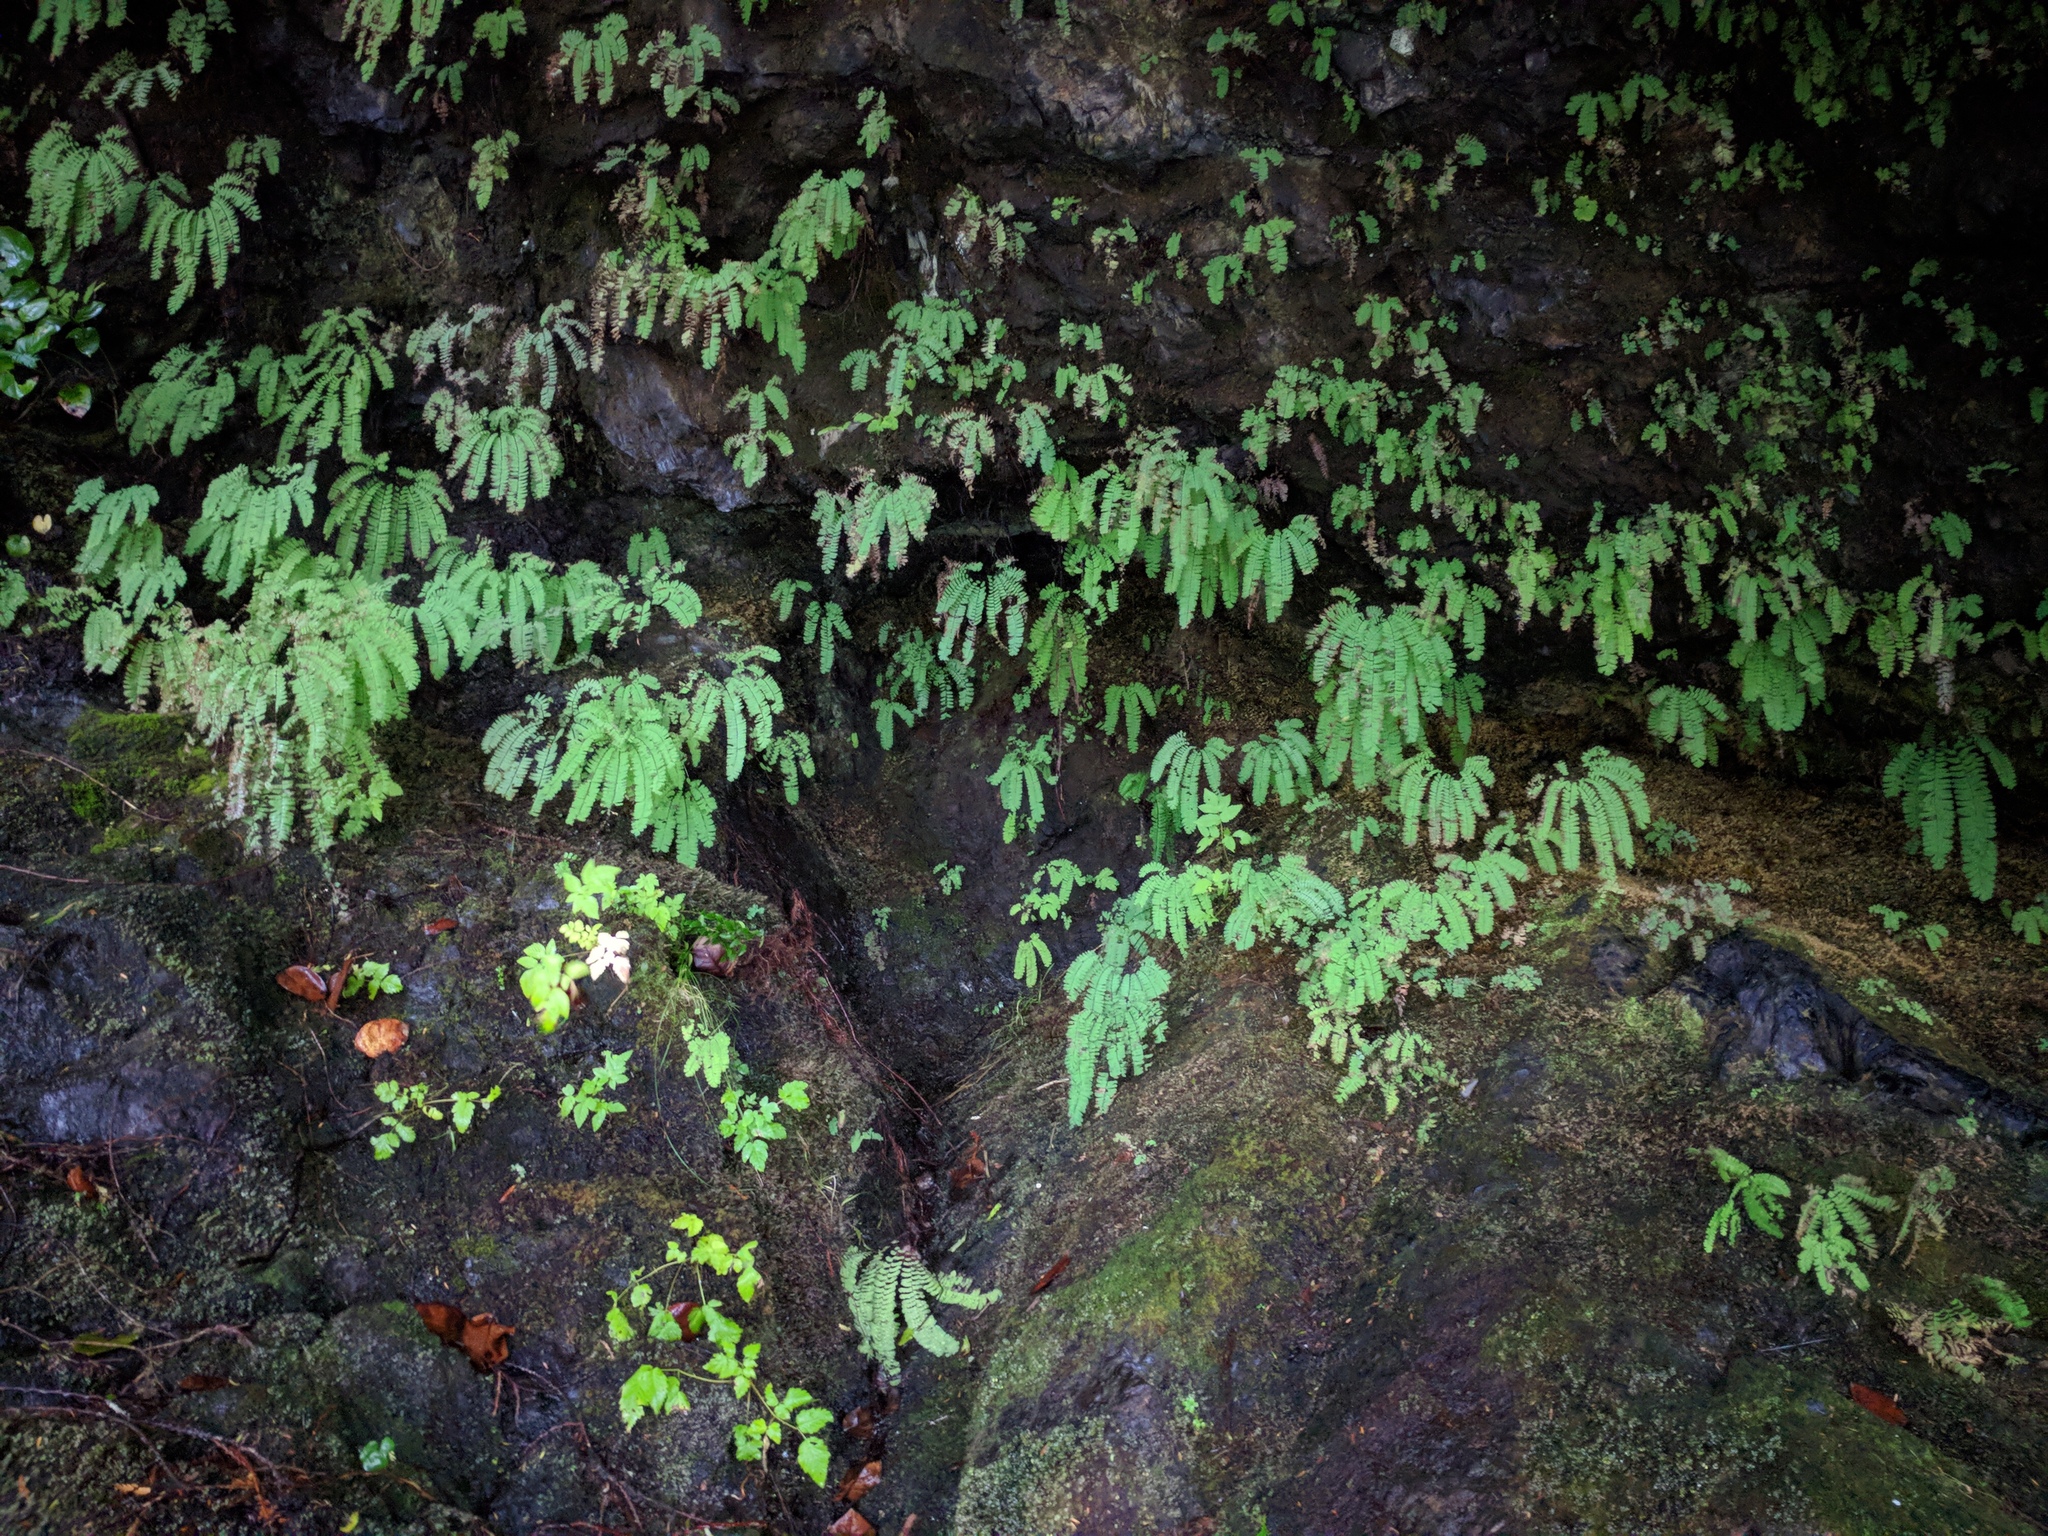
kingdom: Plantae
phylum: Tracheophyta
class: Polypodiopsida
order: Polypodiales
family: Pteridaceae
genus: Adiantum
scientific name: Adiantum aleuticum
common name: Aleutian maidenhair fern
